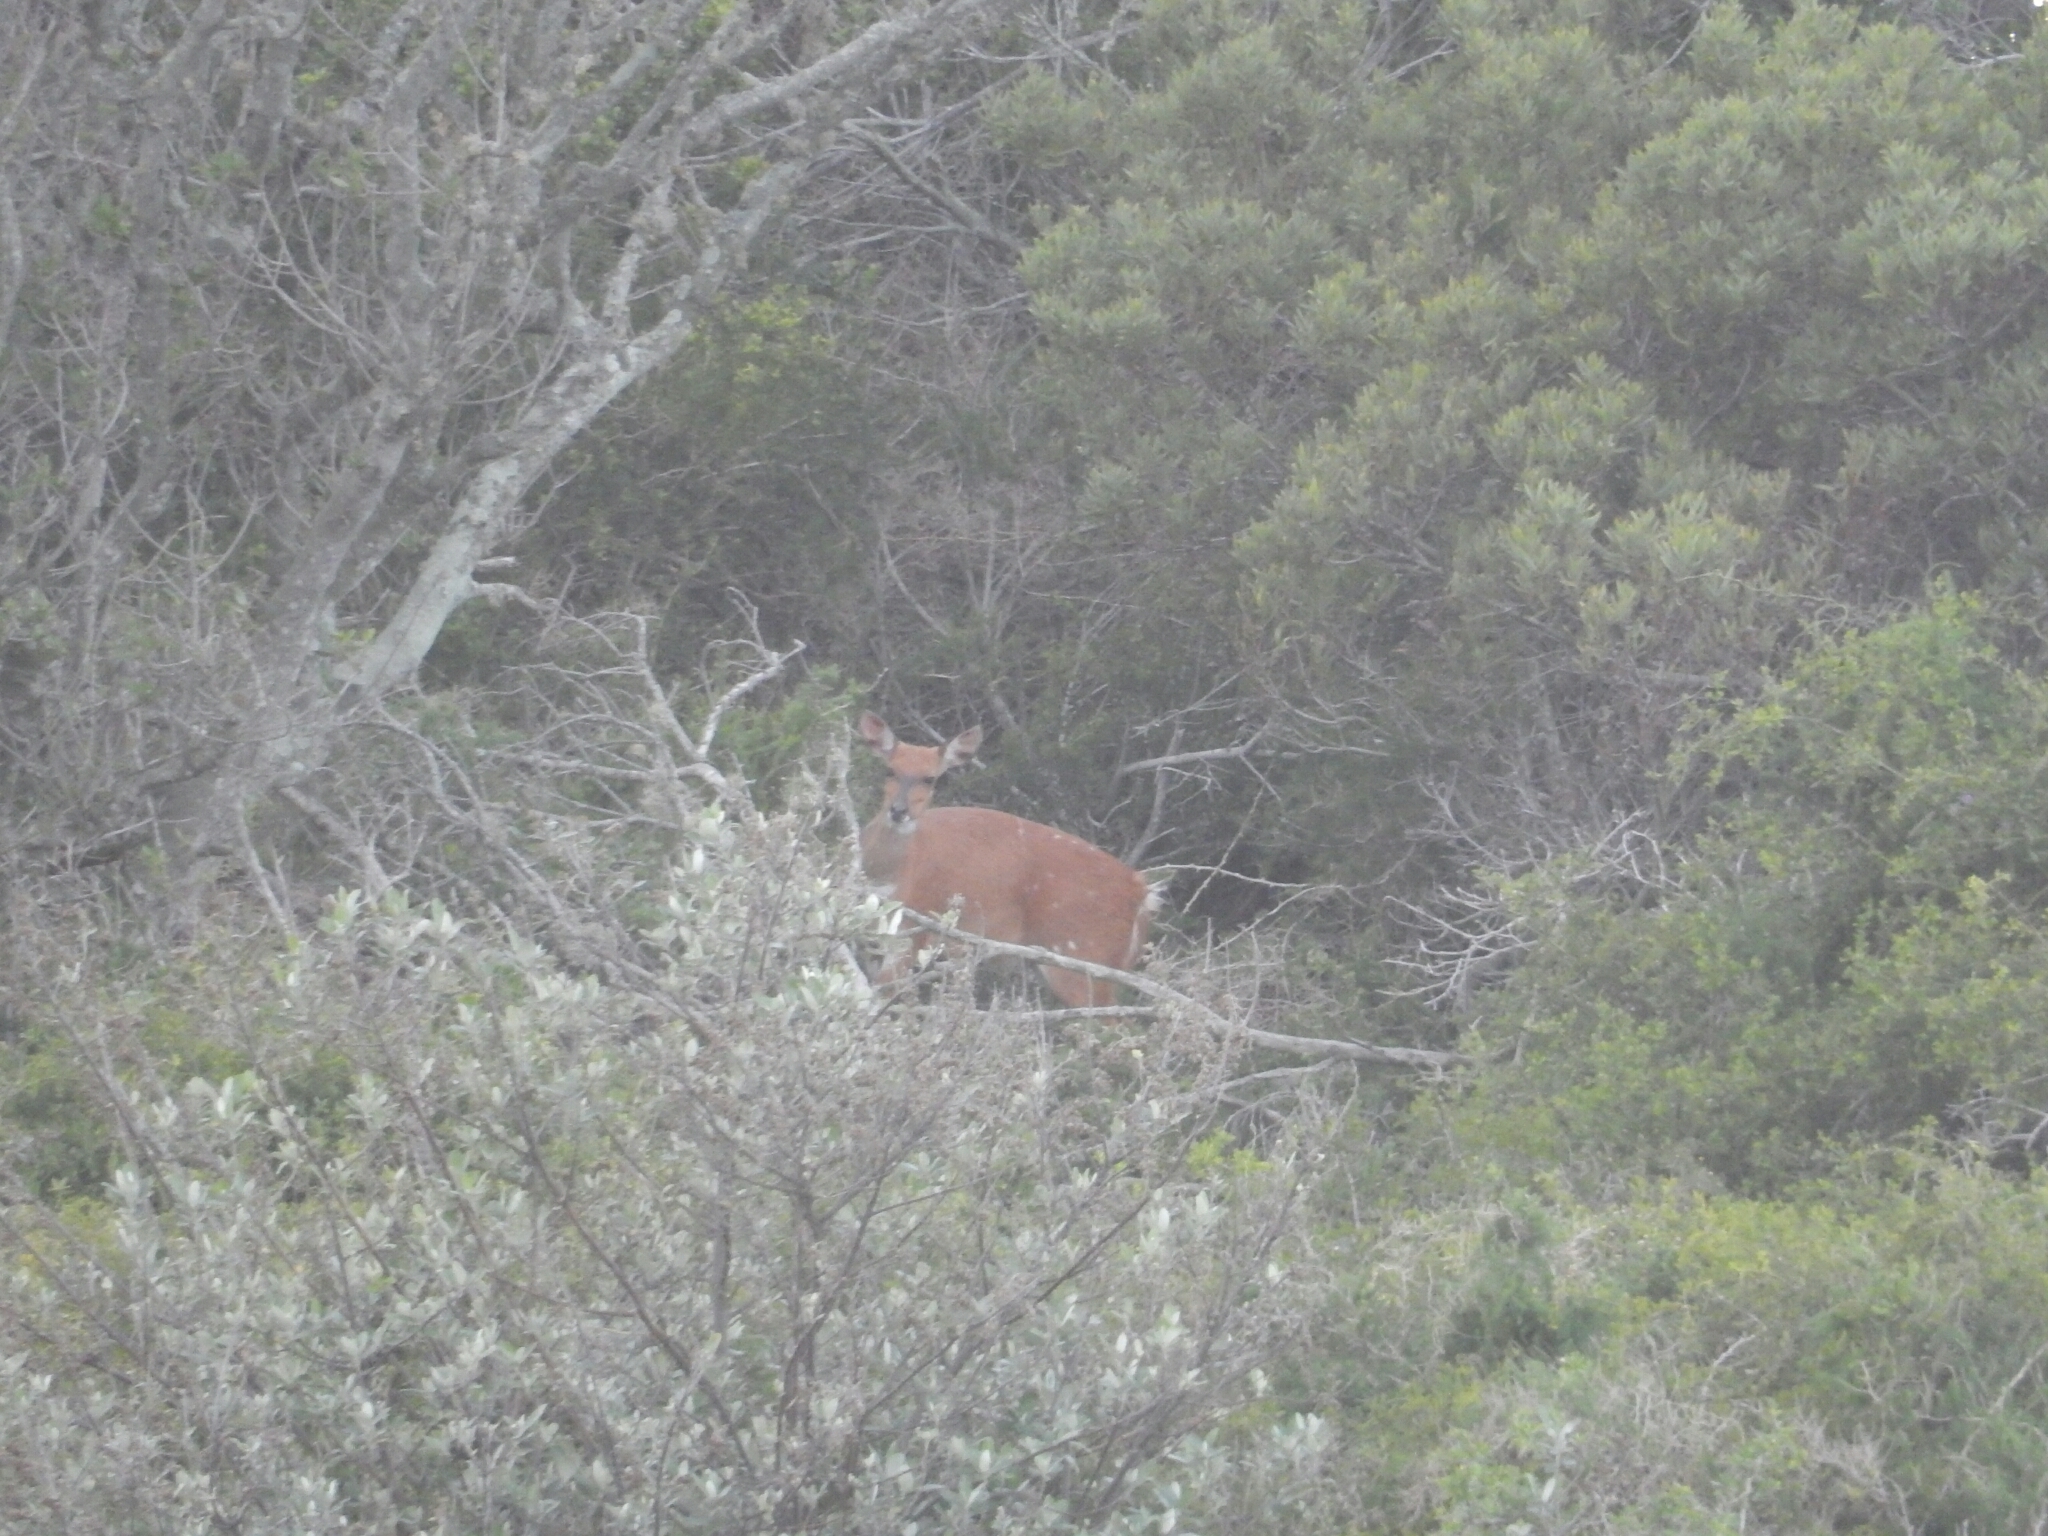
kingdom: Animalia
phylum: Chordata
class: Mammalia
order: Artiodactyla
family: Bovidae
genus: Tragelaphus
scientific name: Tragelaphus scriptus
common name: Bushbuck
